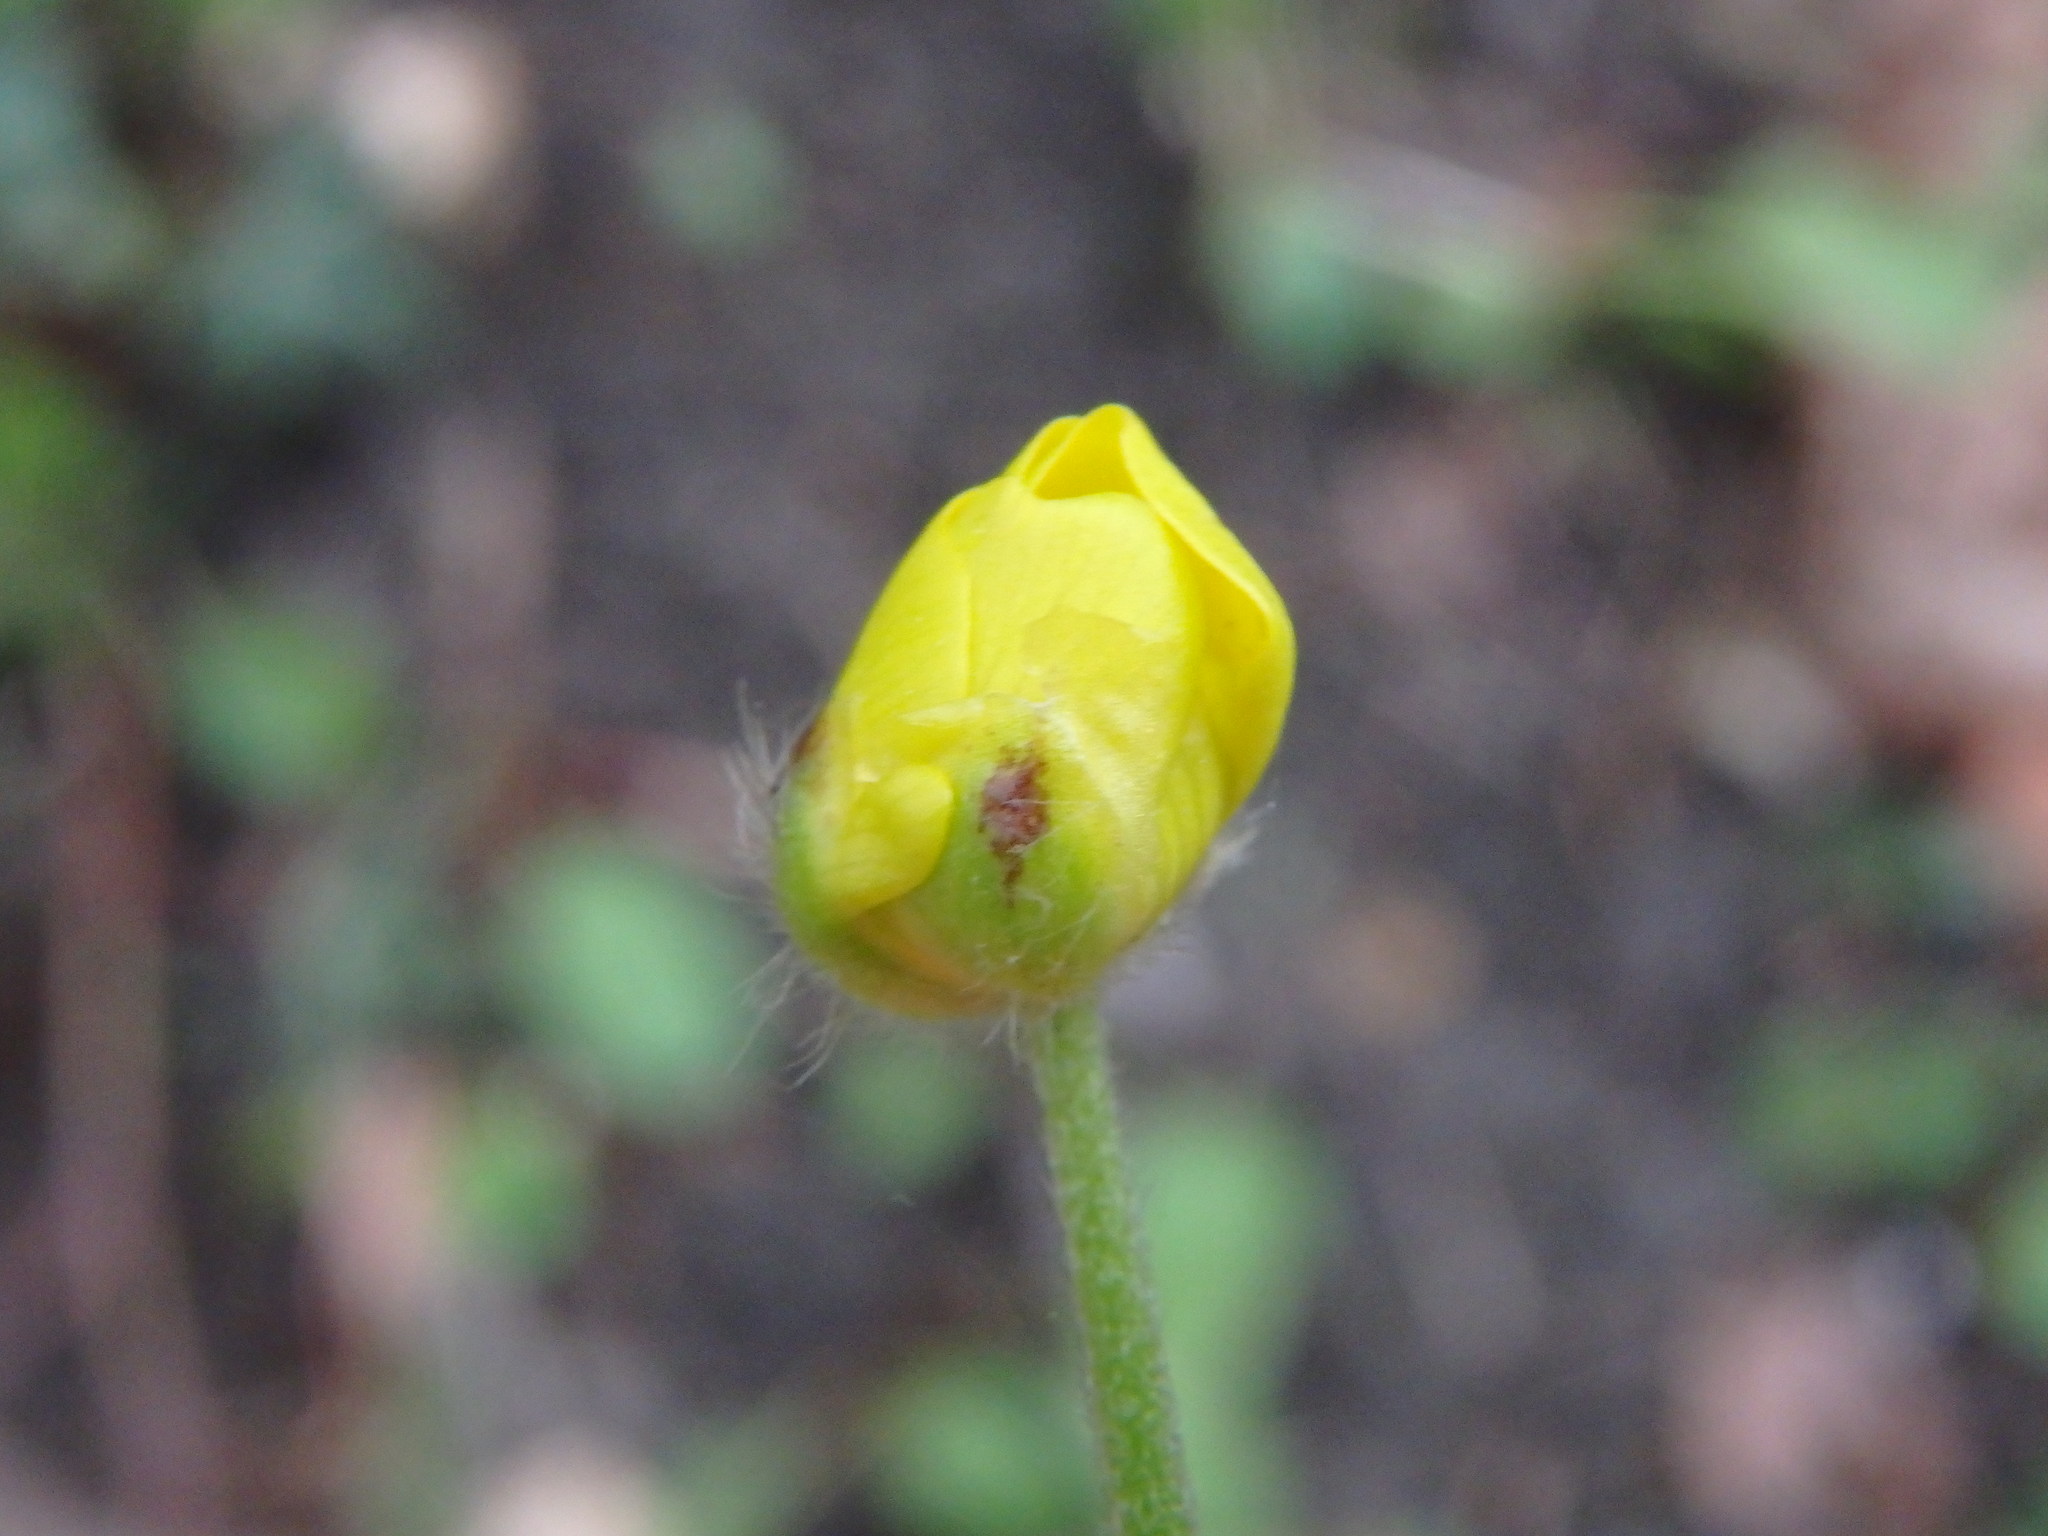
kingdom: Plantae
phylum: Tracheophyta
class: Magnoliopsida
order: Ranunculales
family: Ranunculaceae
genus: Ranunculus
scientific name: Ranunculus acris
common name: Meadow buttercup
